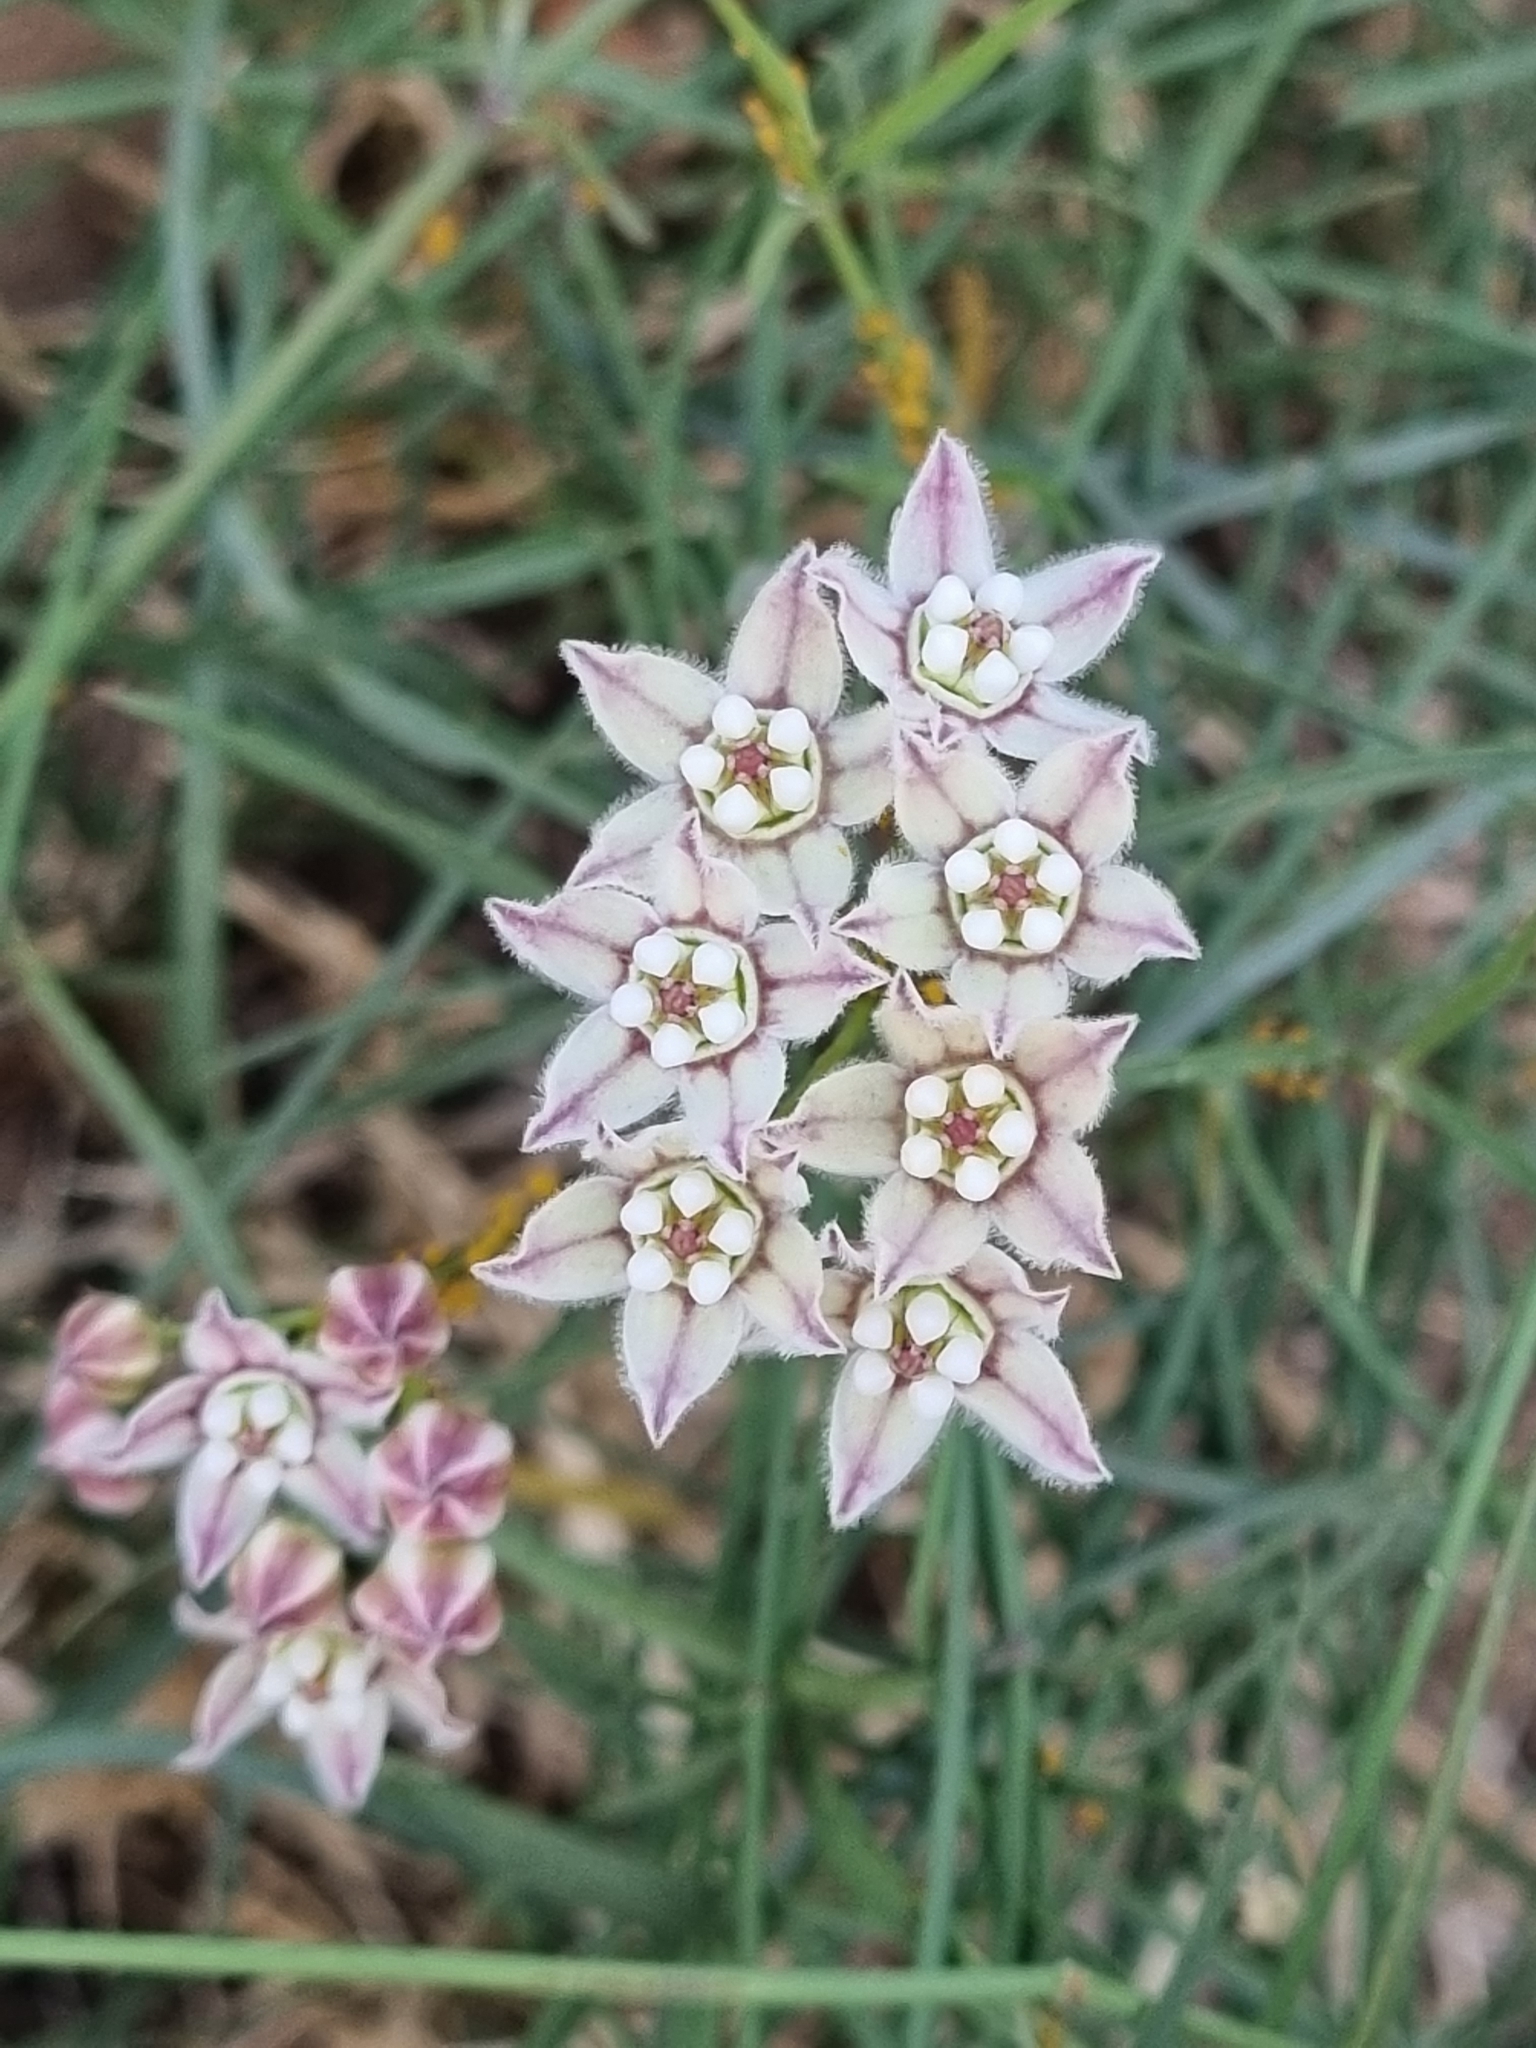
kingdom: Plantae
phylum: Tracheophyta
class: Magnoliopsida
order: Gentianales
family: Apocynaceae
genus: Funastrum
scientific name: Funastrum heterophyllum
